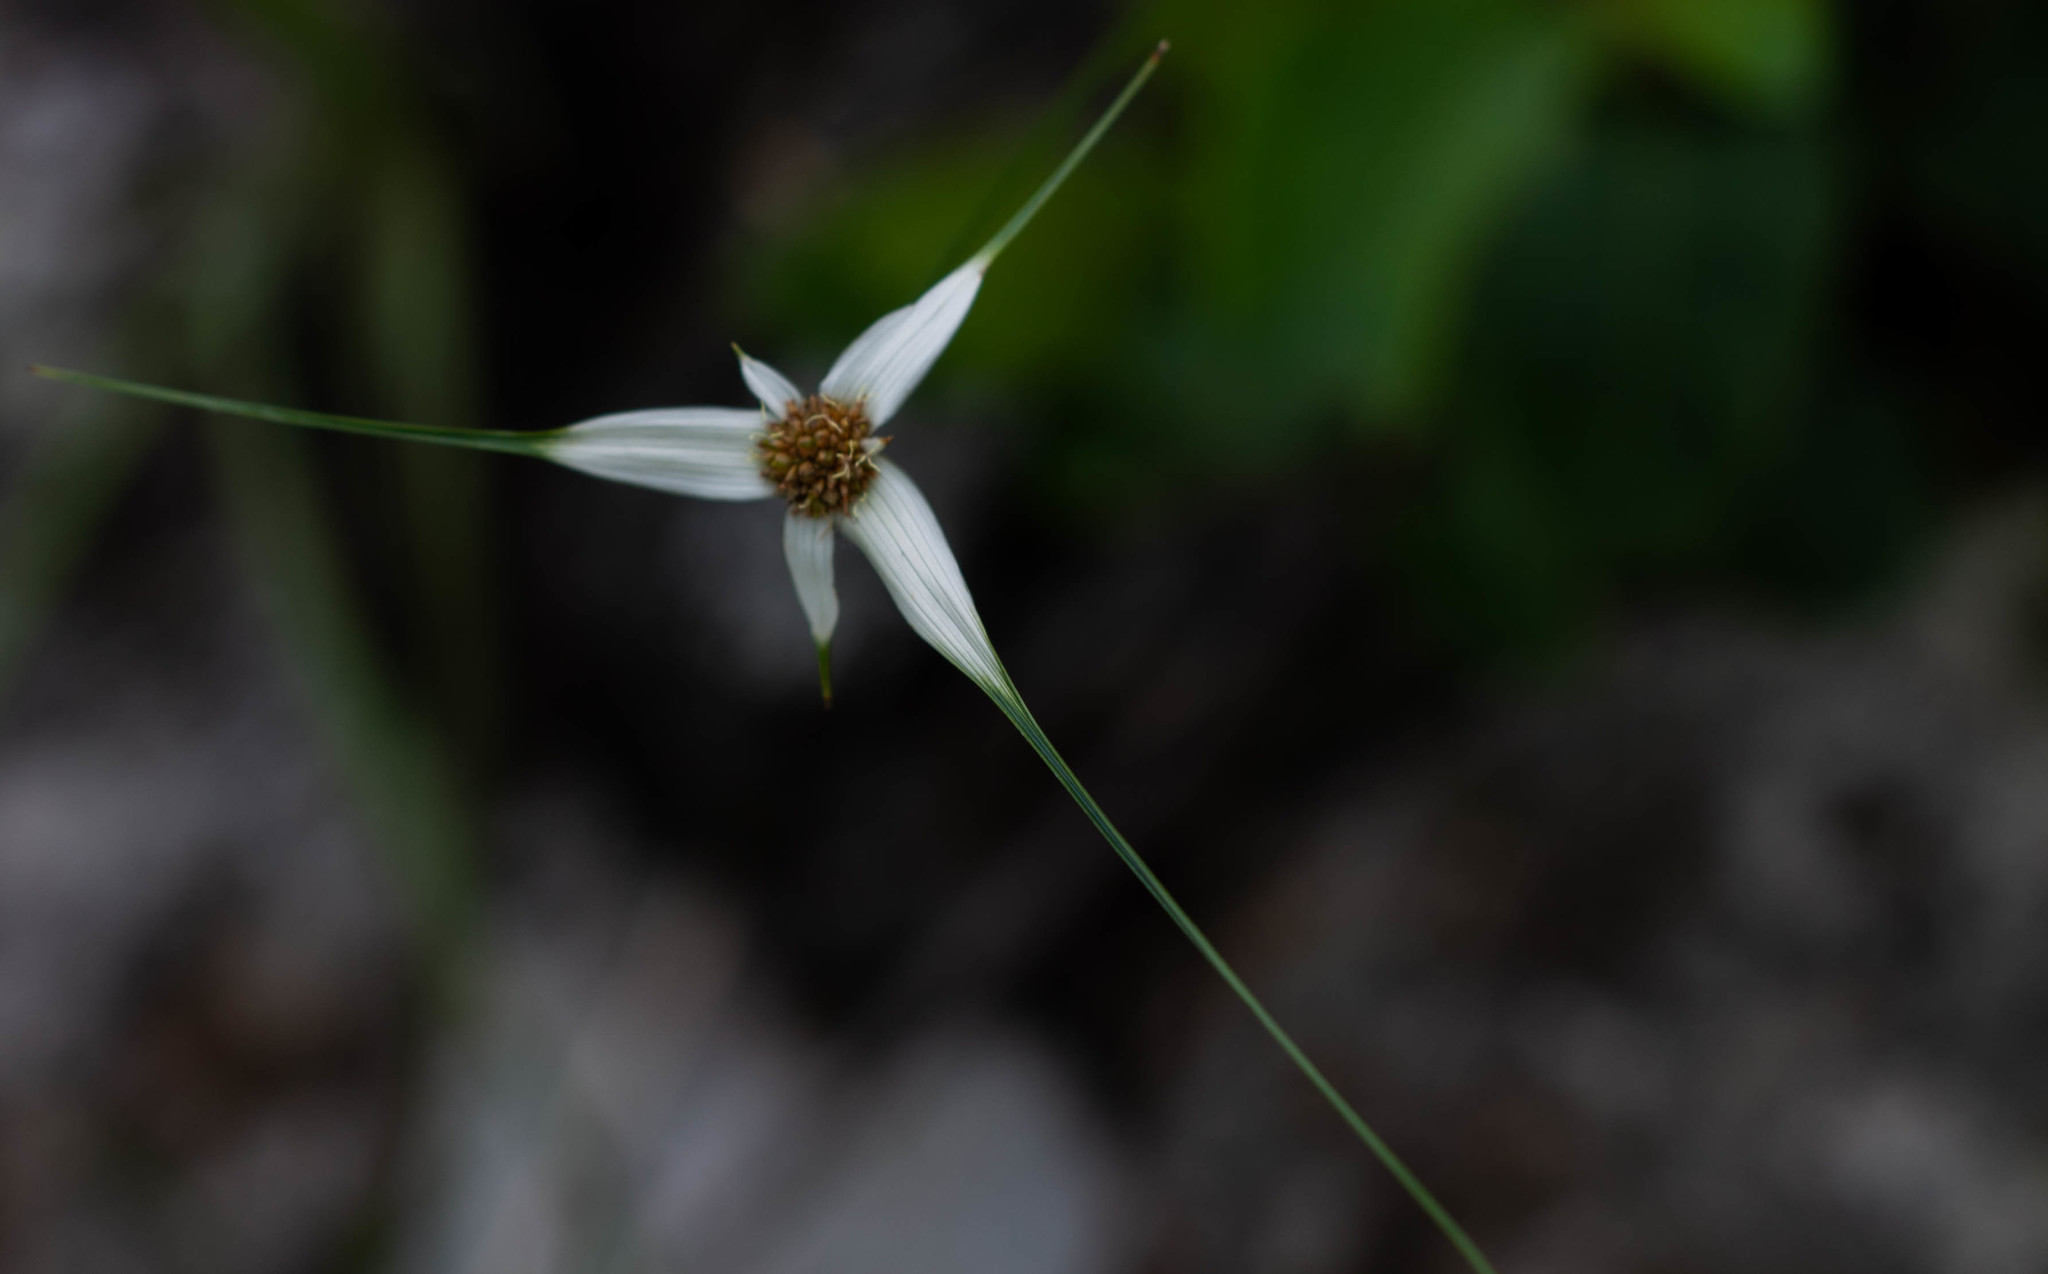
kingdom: Plantae
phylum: Tracheophyta
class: Liliopsida
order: Poales
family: Cyperaceae
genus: Rhynchospora
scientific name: Rhynchospora consanguinea
